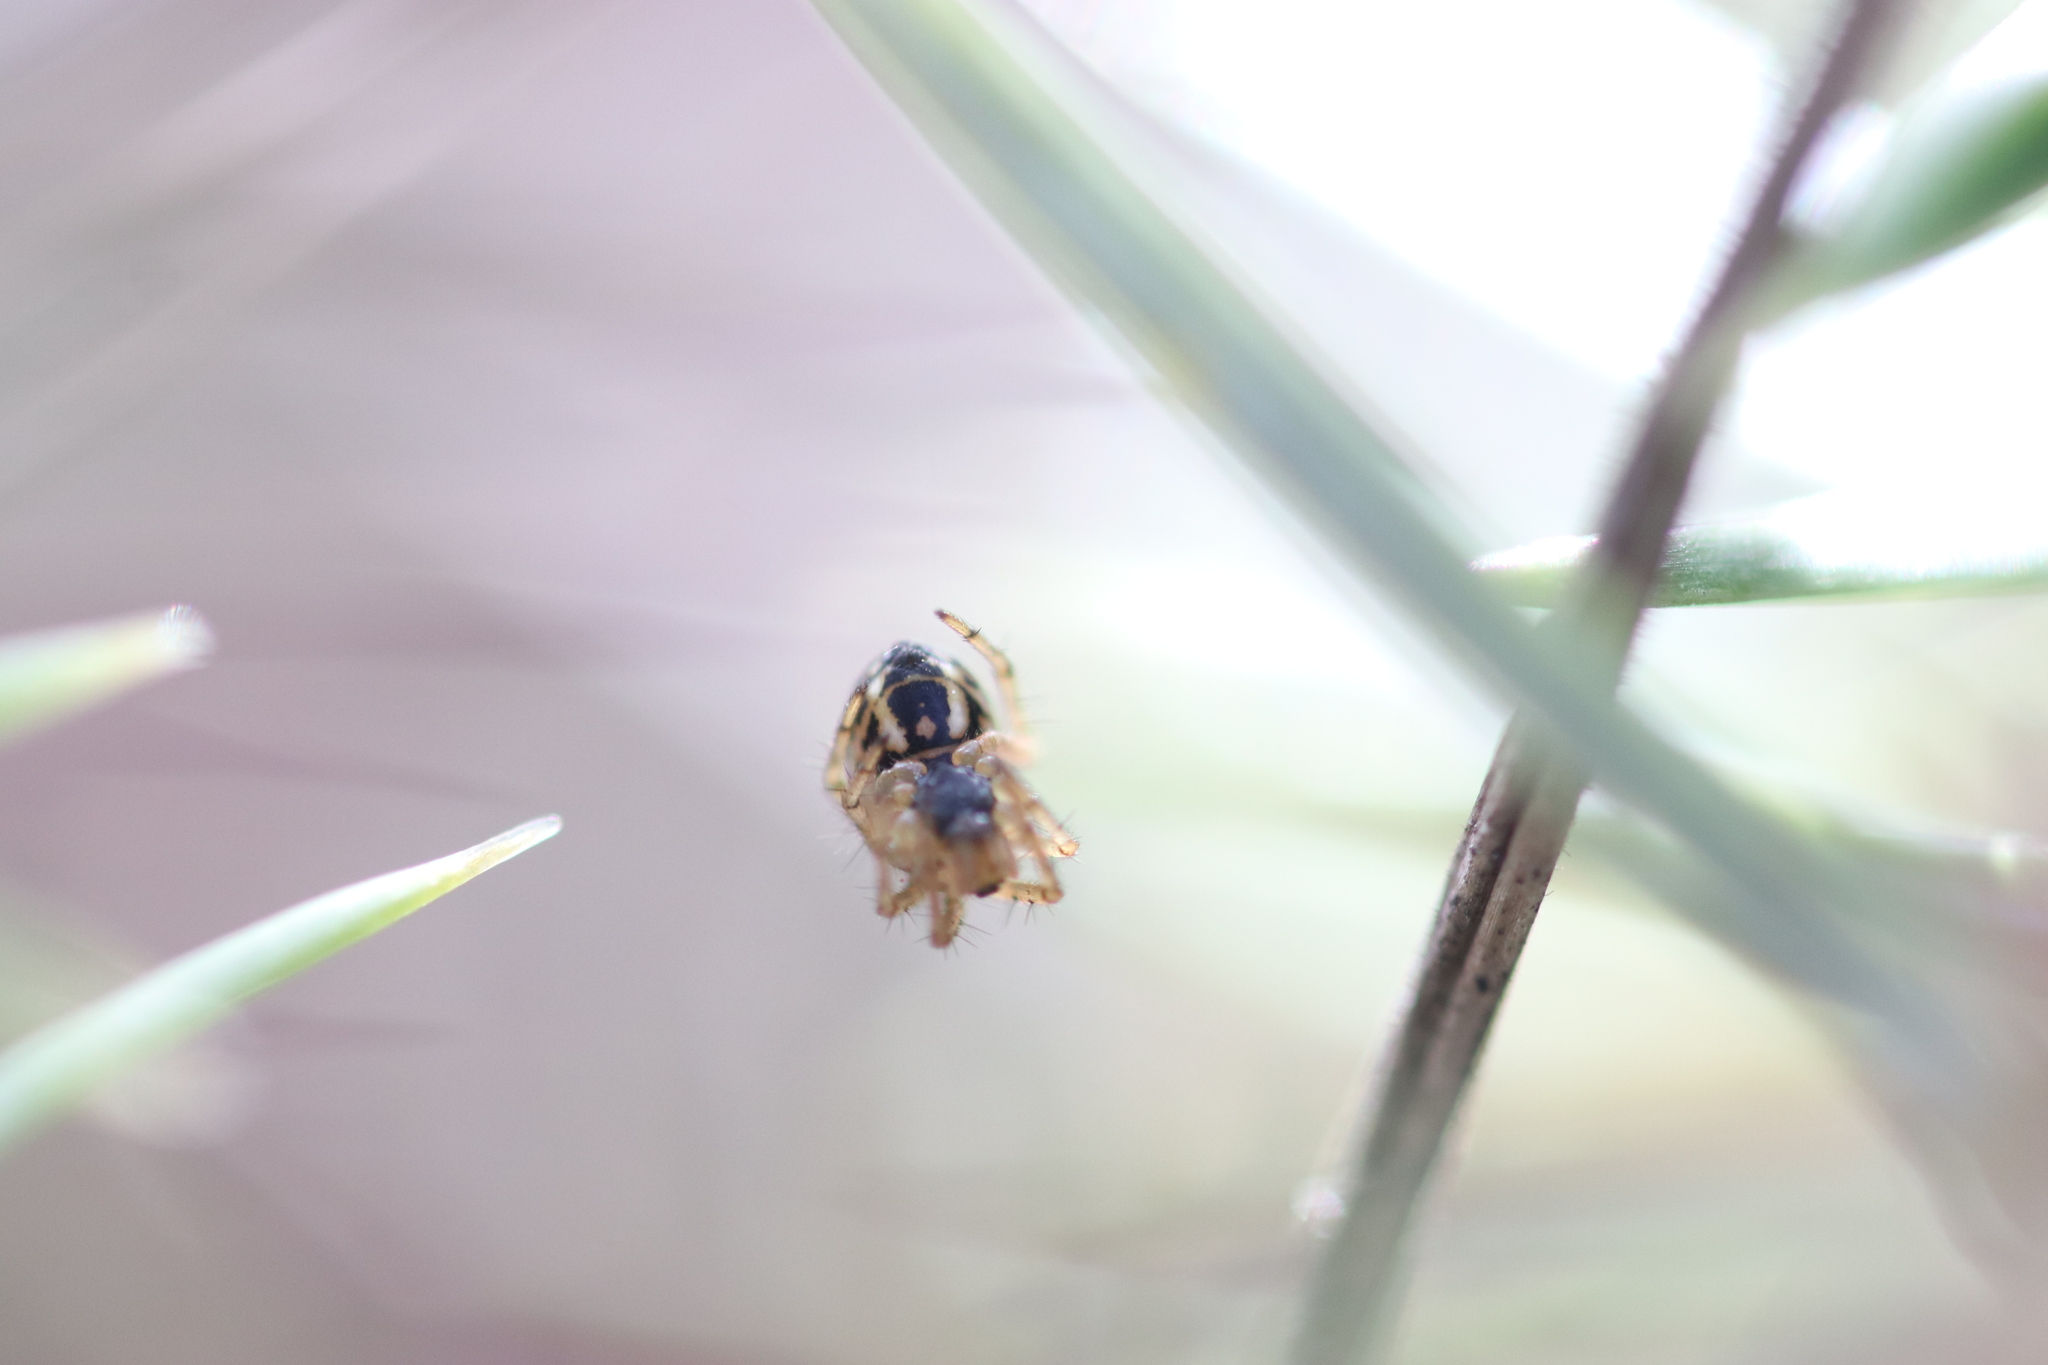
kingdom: Animalia
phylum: Arthropoda
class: Arachnida
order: Araneae
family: Araneidae
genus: Mangora
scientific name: Mangora acalypha
